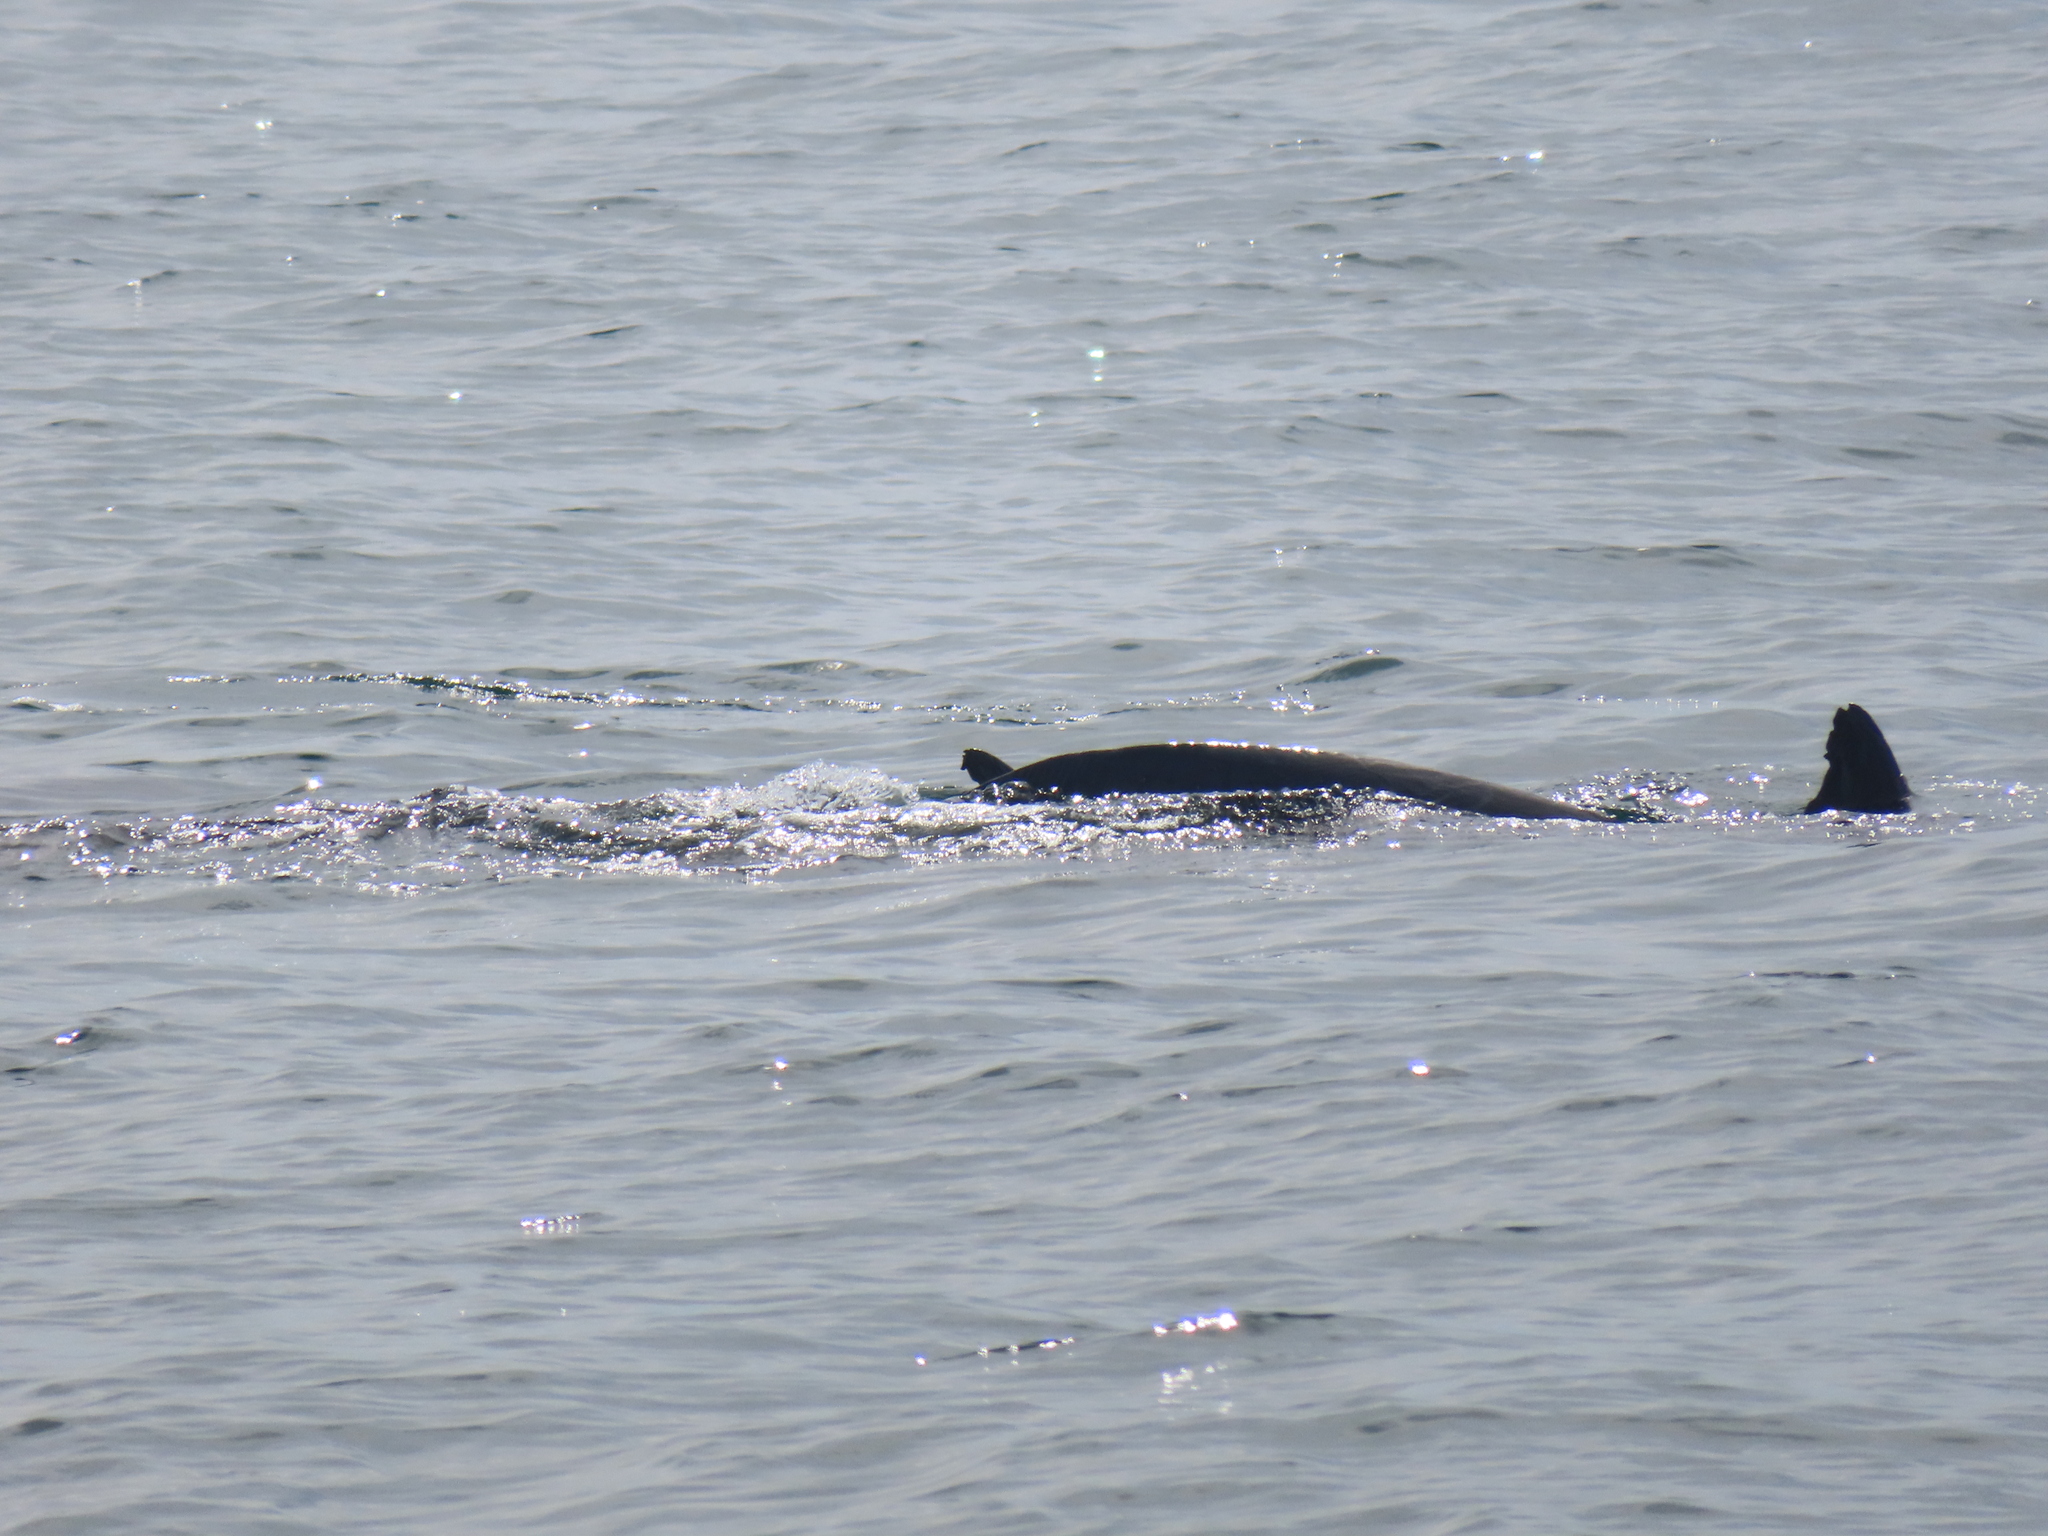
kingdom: Animalia
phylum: Chordata
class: Mammalia
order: Cetacea
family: Delphinidae
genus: Tursiops
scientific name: Tursiops truncatus
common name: Bottlenose dolphin
